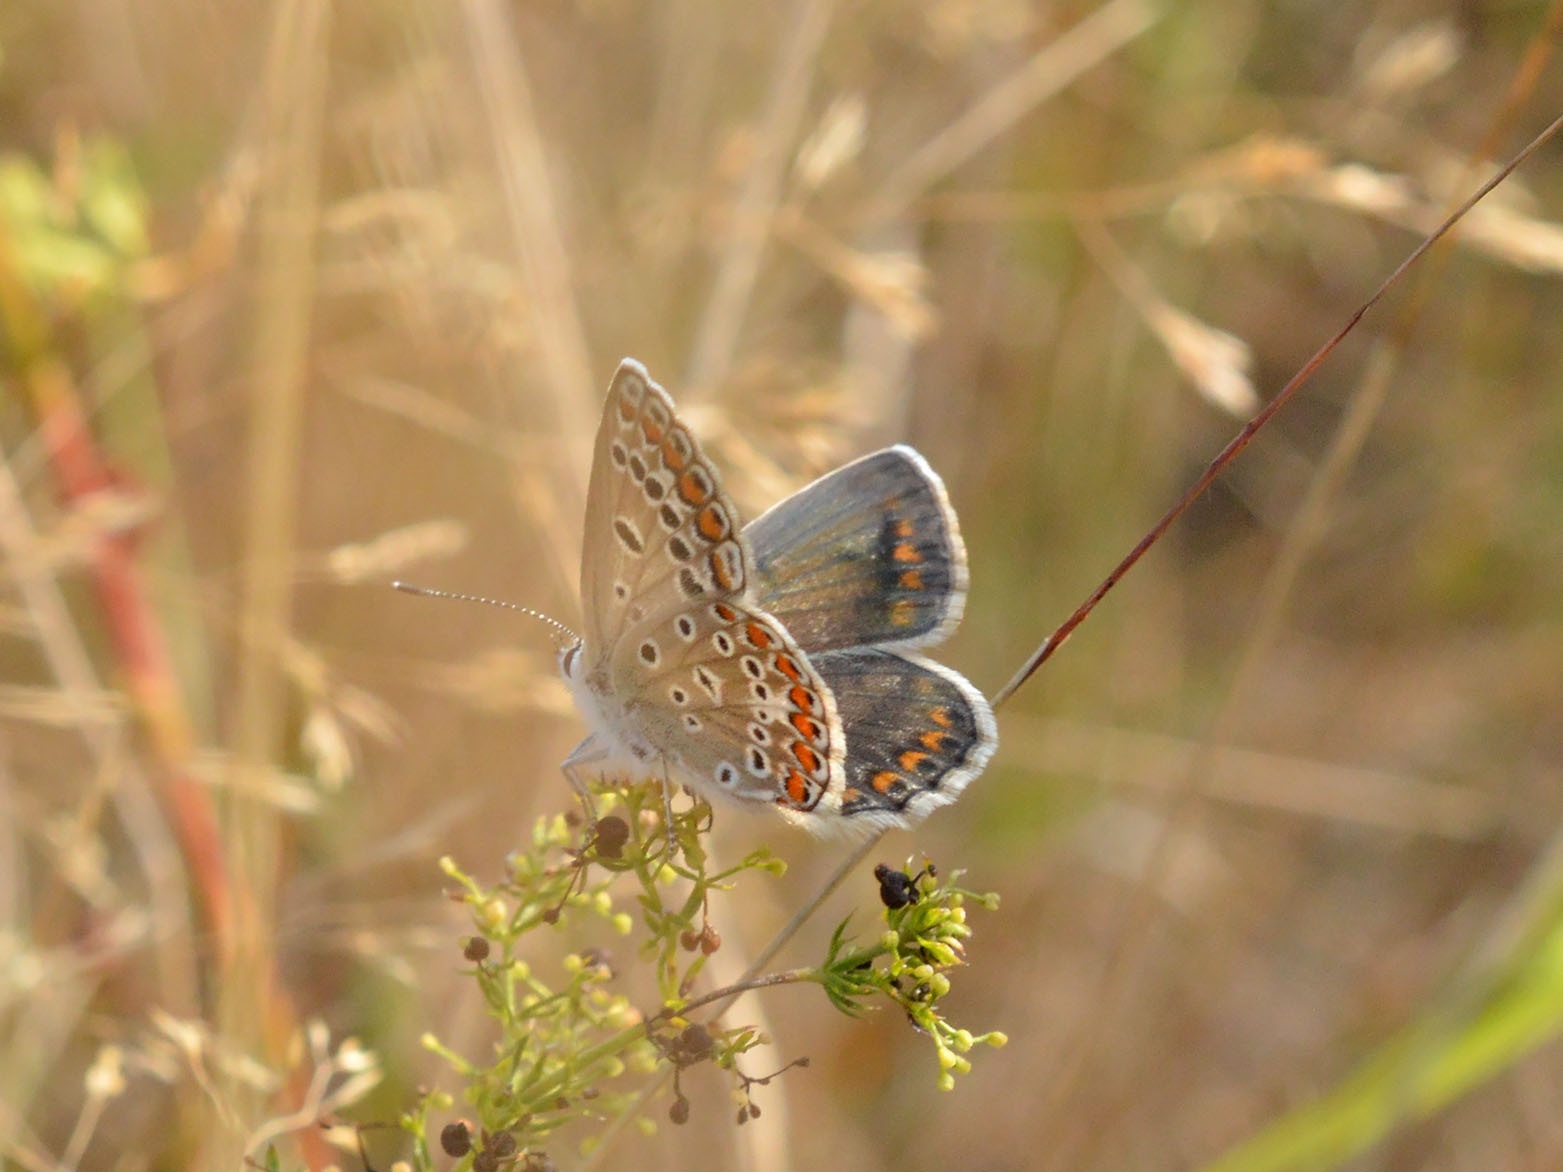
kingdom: Animalia
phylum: Arthropoda
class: Insecta
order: Lepidoptera
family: Lycaenidae
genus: Polyommatus
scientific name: Polyommatus icarus
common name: Common blue
